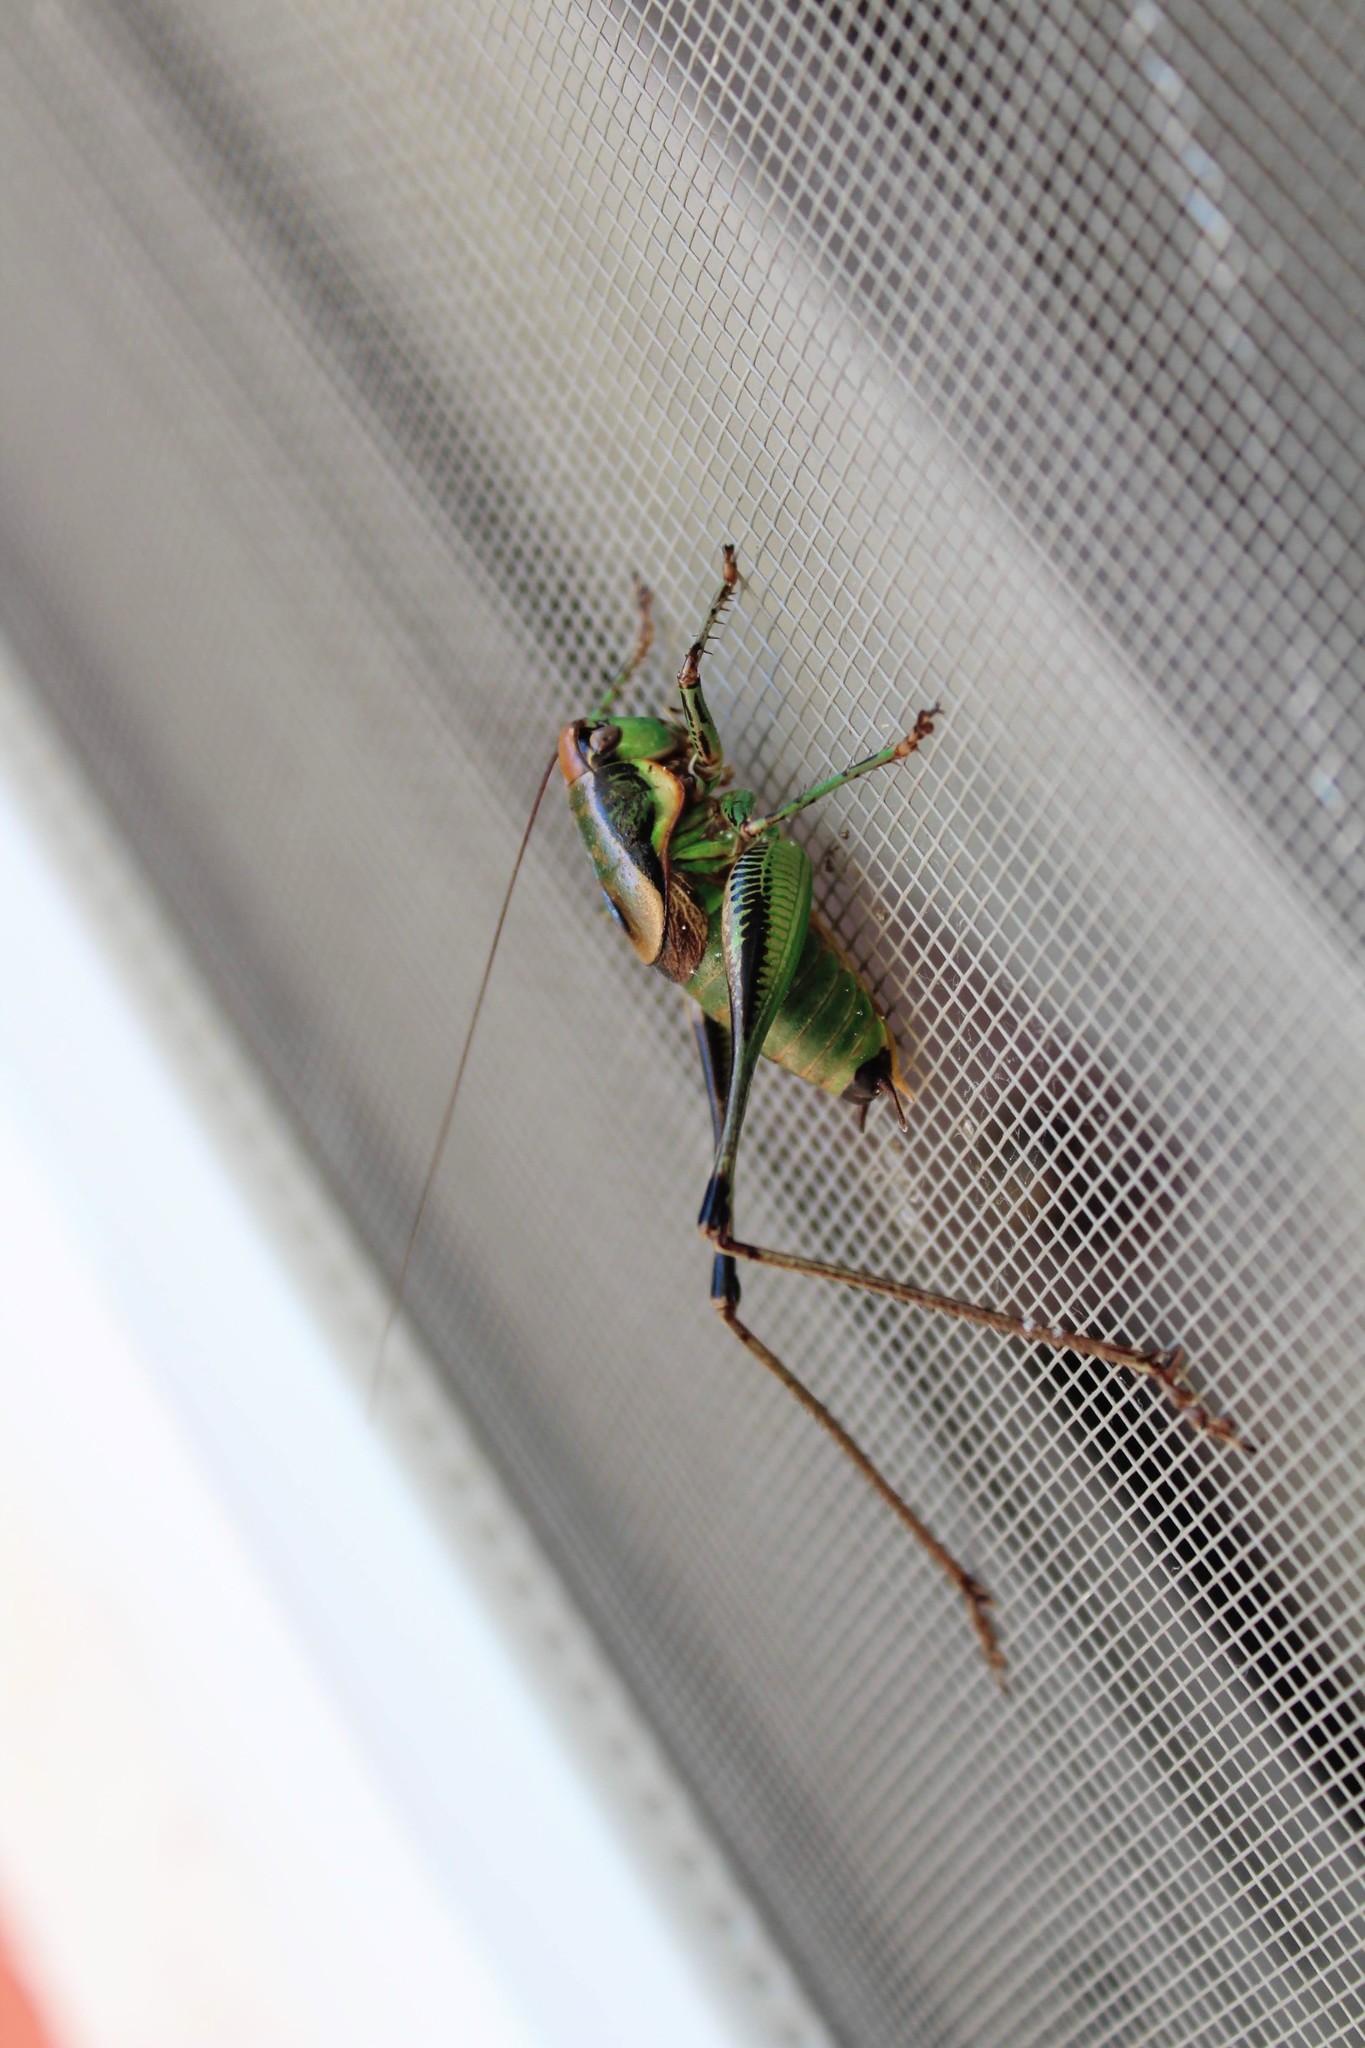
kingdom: Animalia
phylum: Arthropoda
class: Insecta
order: Orthoptera
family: Tettigoniidae
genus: Eupholidoptera
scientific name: Eupholidoptera schmidti
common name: Schmidt's marbled bush-cricket
